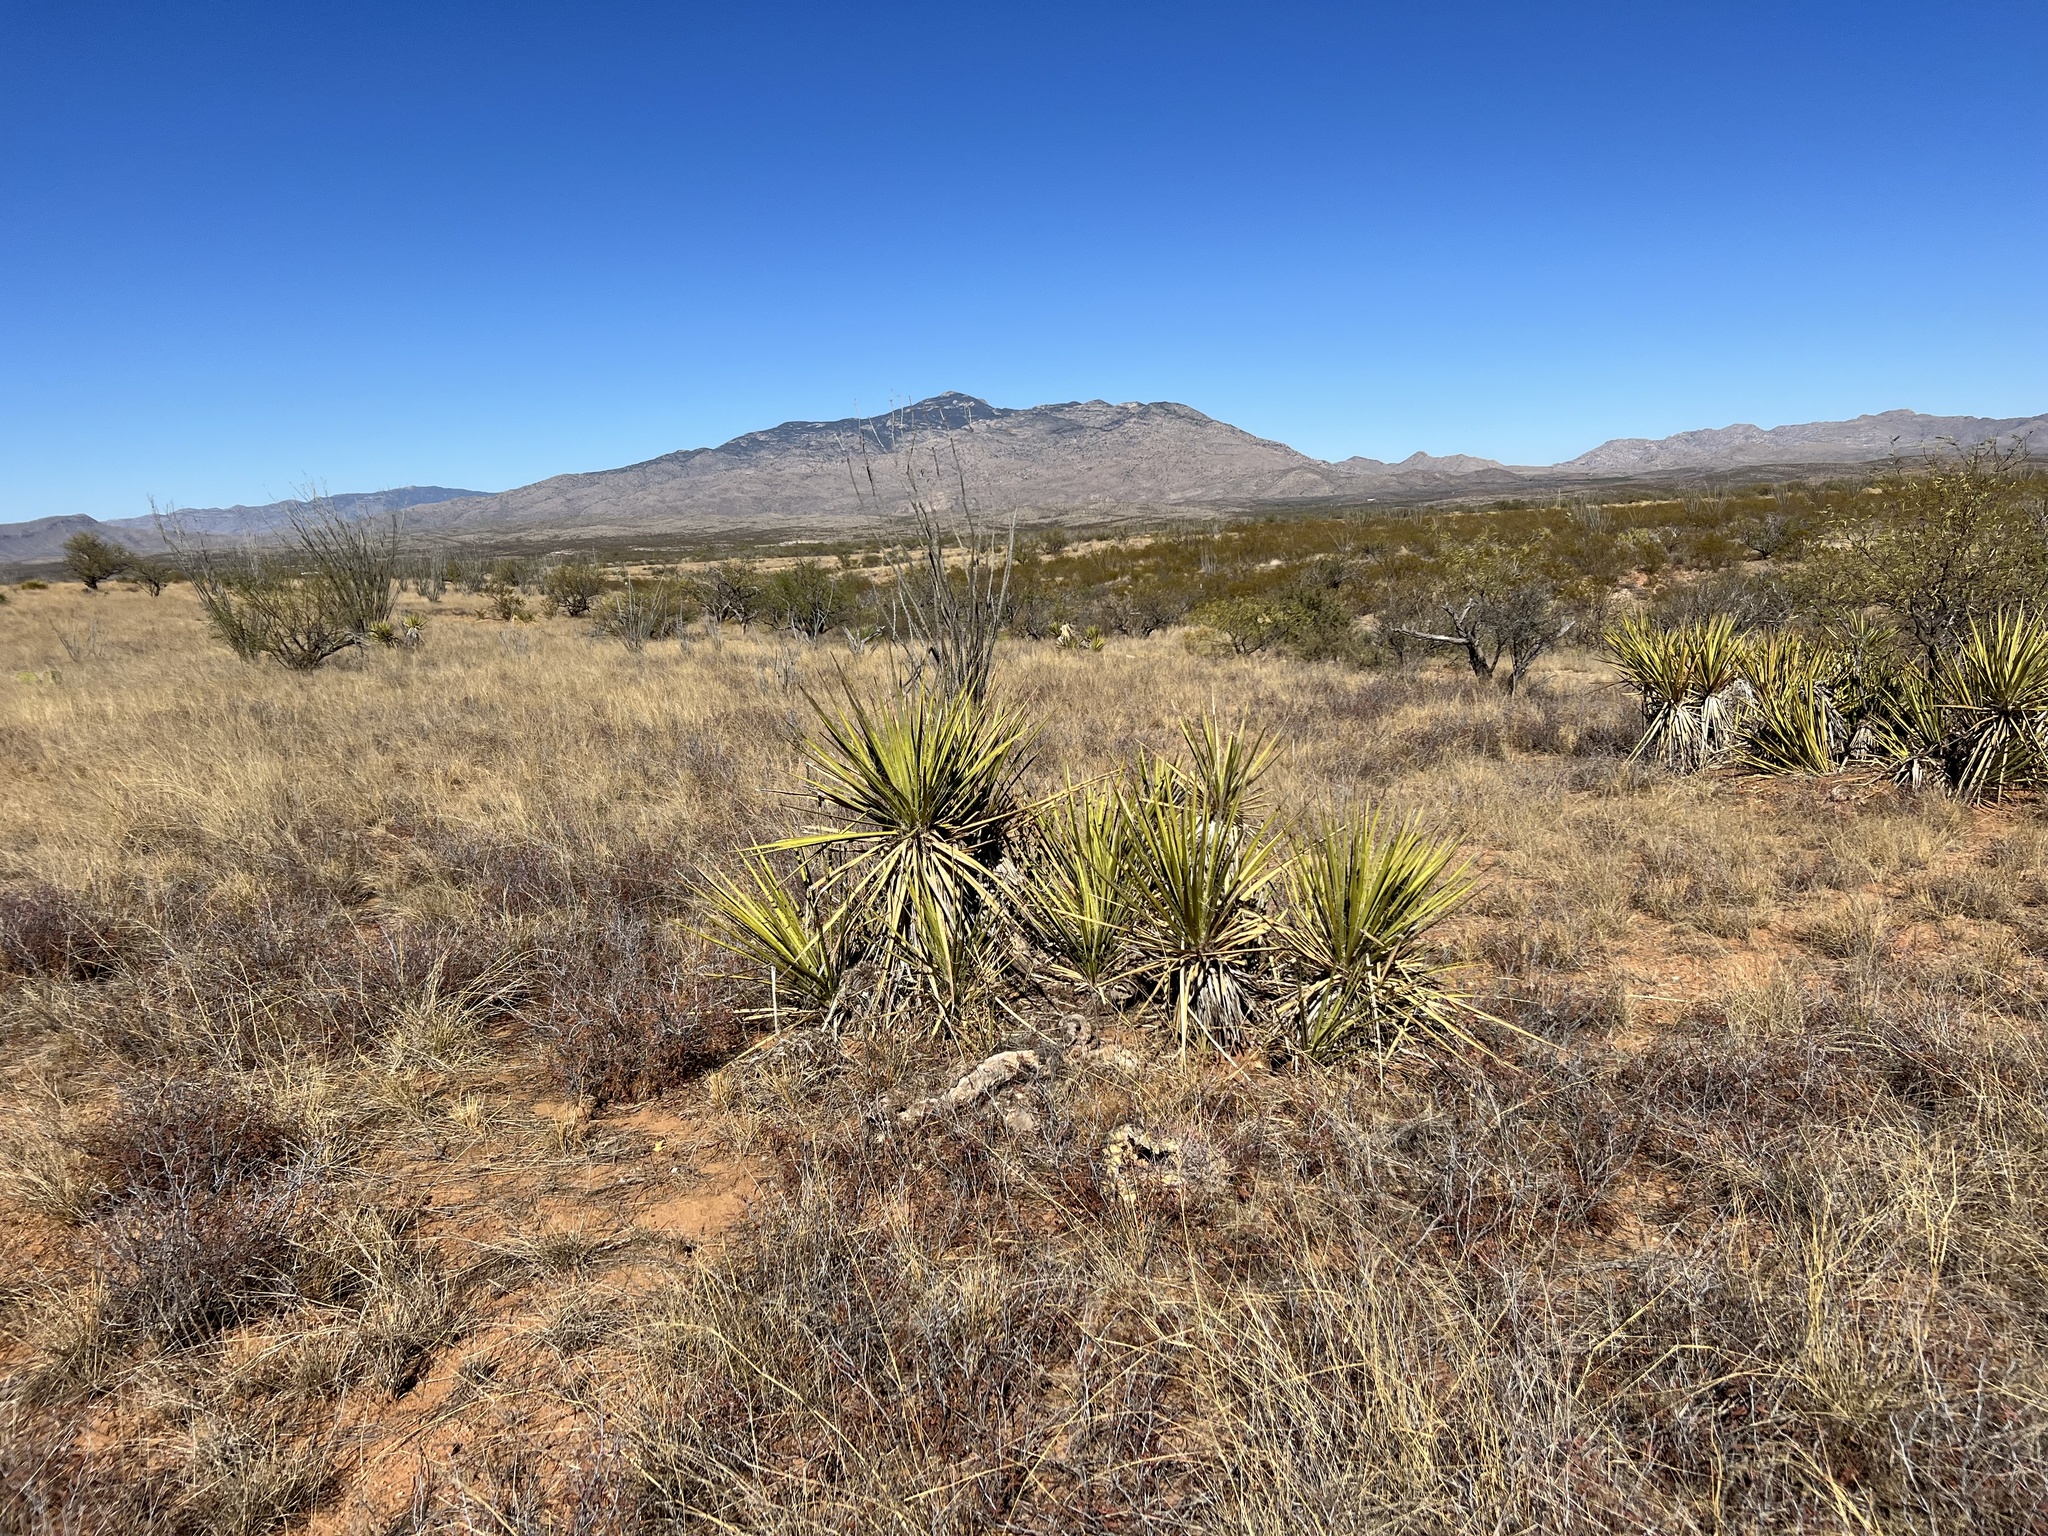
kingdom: Plantae
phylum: Tracheophyta
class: Liliopsida
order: Asparagales
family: Asparagaceae
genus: Yucca
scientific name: Yucca baccata
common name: Banana yucca
